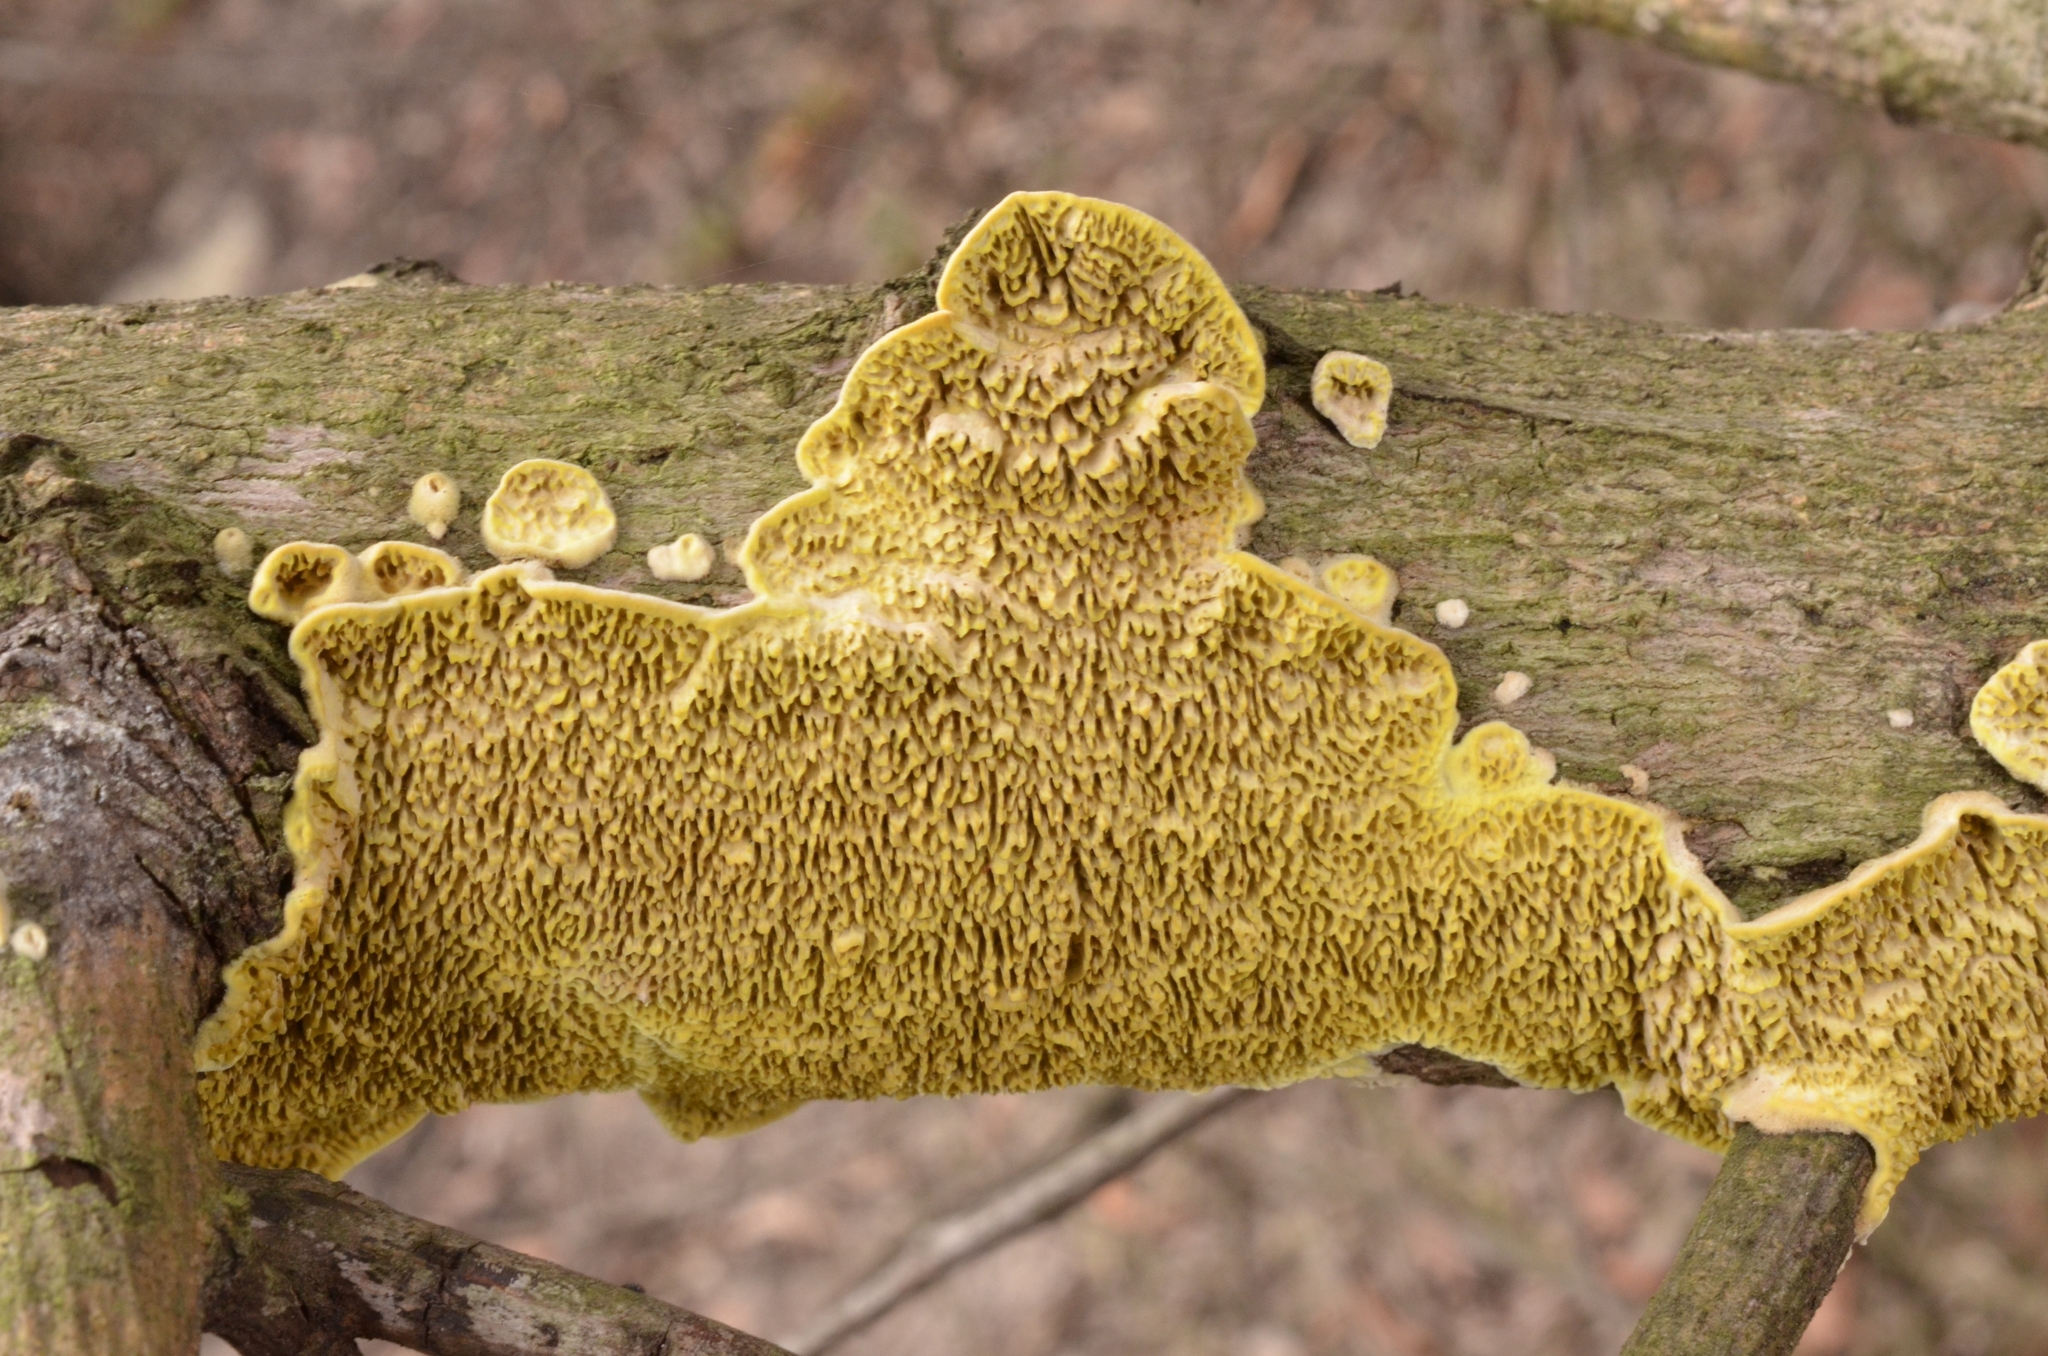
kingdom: Fungi
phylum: Basidiomycota
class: Agaricomycetes
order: Polyporales
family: Irpicaceae
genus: Flavodon
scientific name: Flavodon flavus
